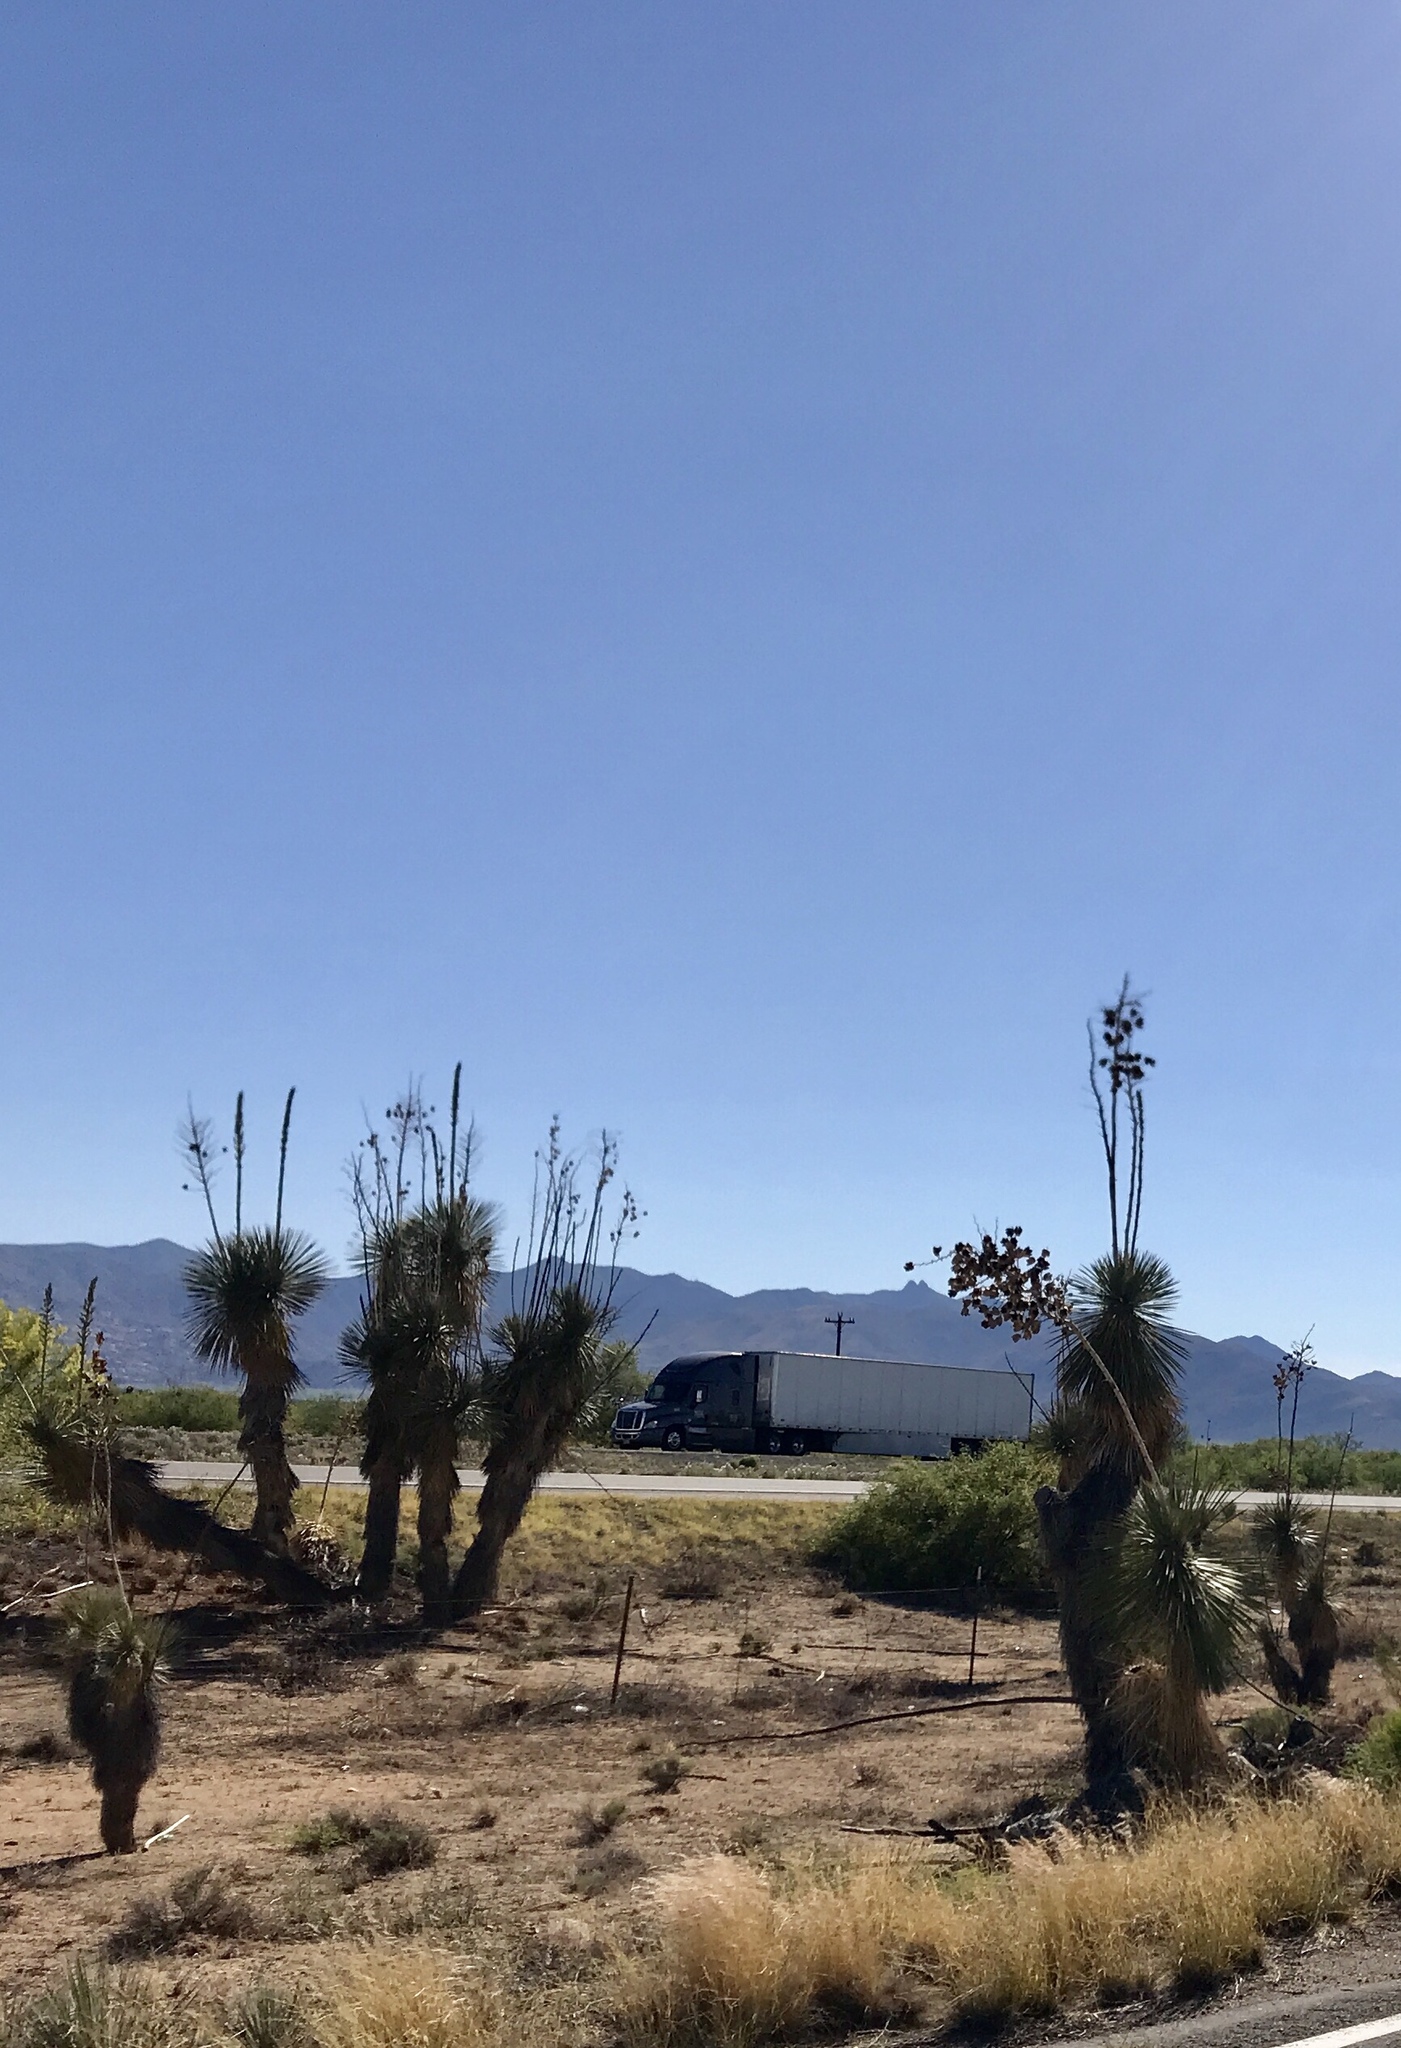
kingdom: Plantae
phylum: Tracheophyta
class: Liliopsida
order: Asparagales
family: Asparagaceae
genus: Yucca
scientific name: Yucca elata
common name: Palmella
